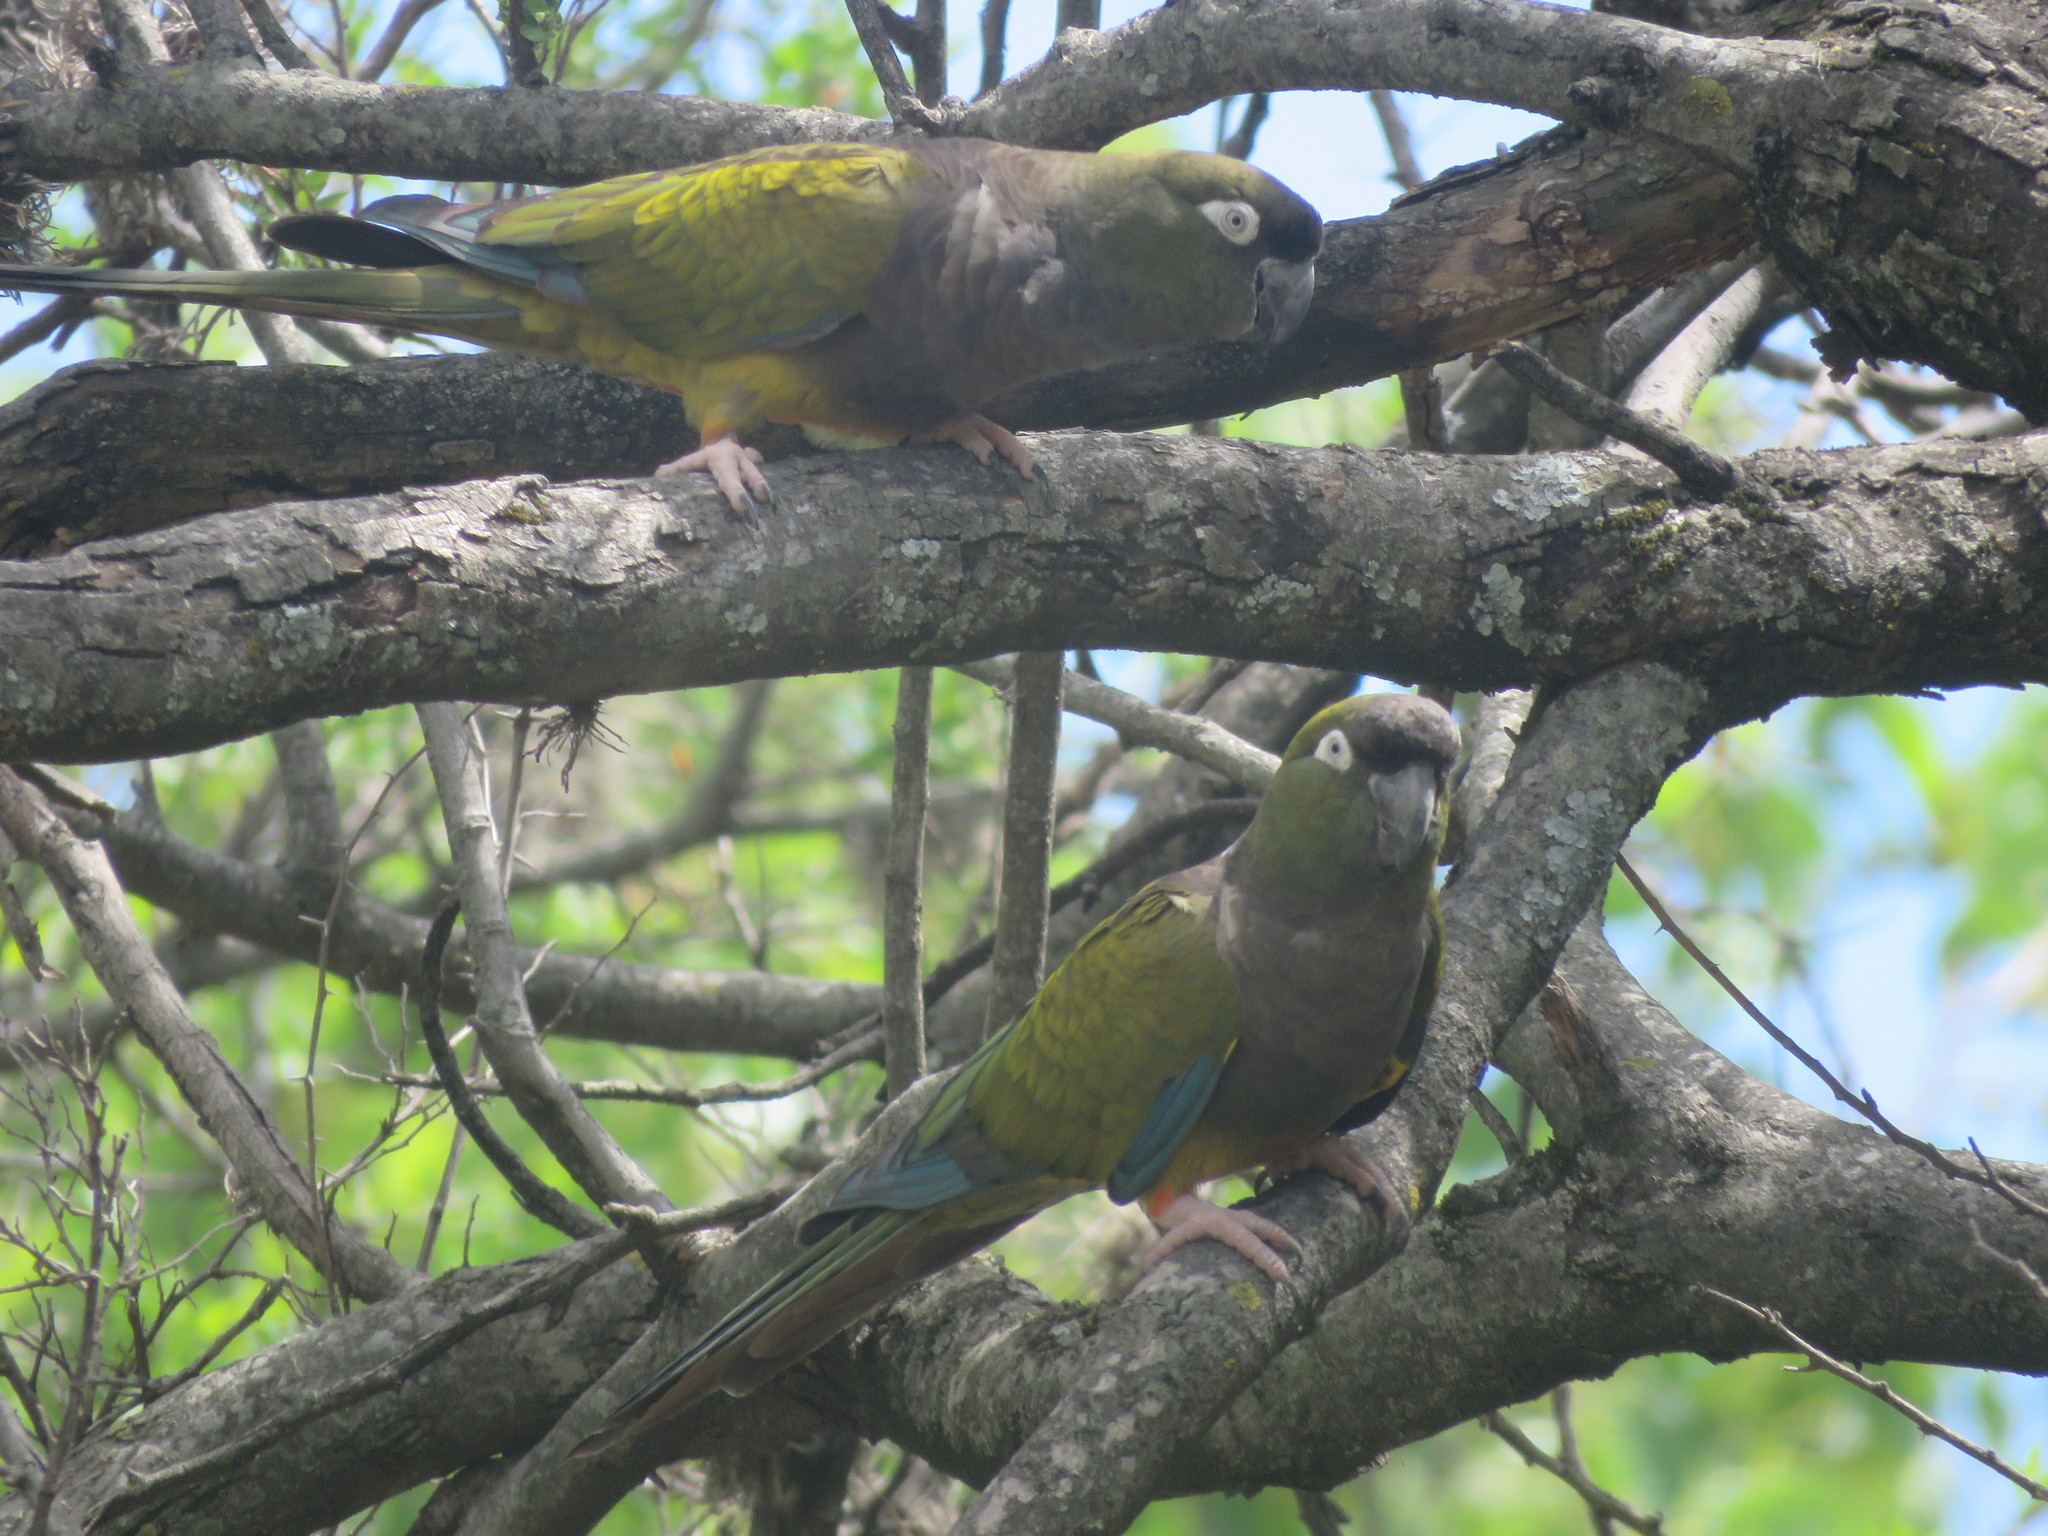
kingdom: Animalia
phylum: Chordata
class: Aves
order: Psittaciformes
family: Psittacidae
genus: Cyanoliseus
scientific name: Cyanoliseus patagonus
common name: Burrowing parrot
